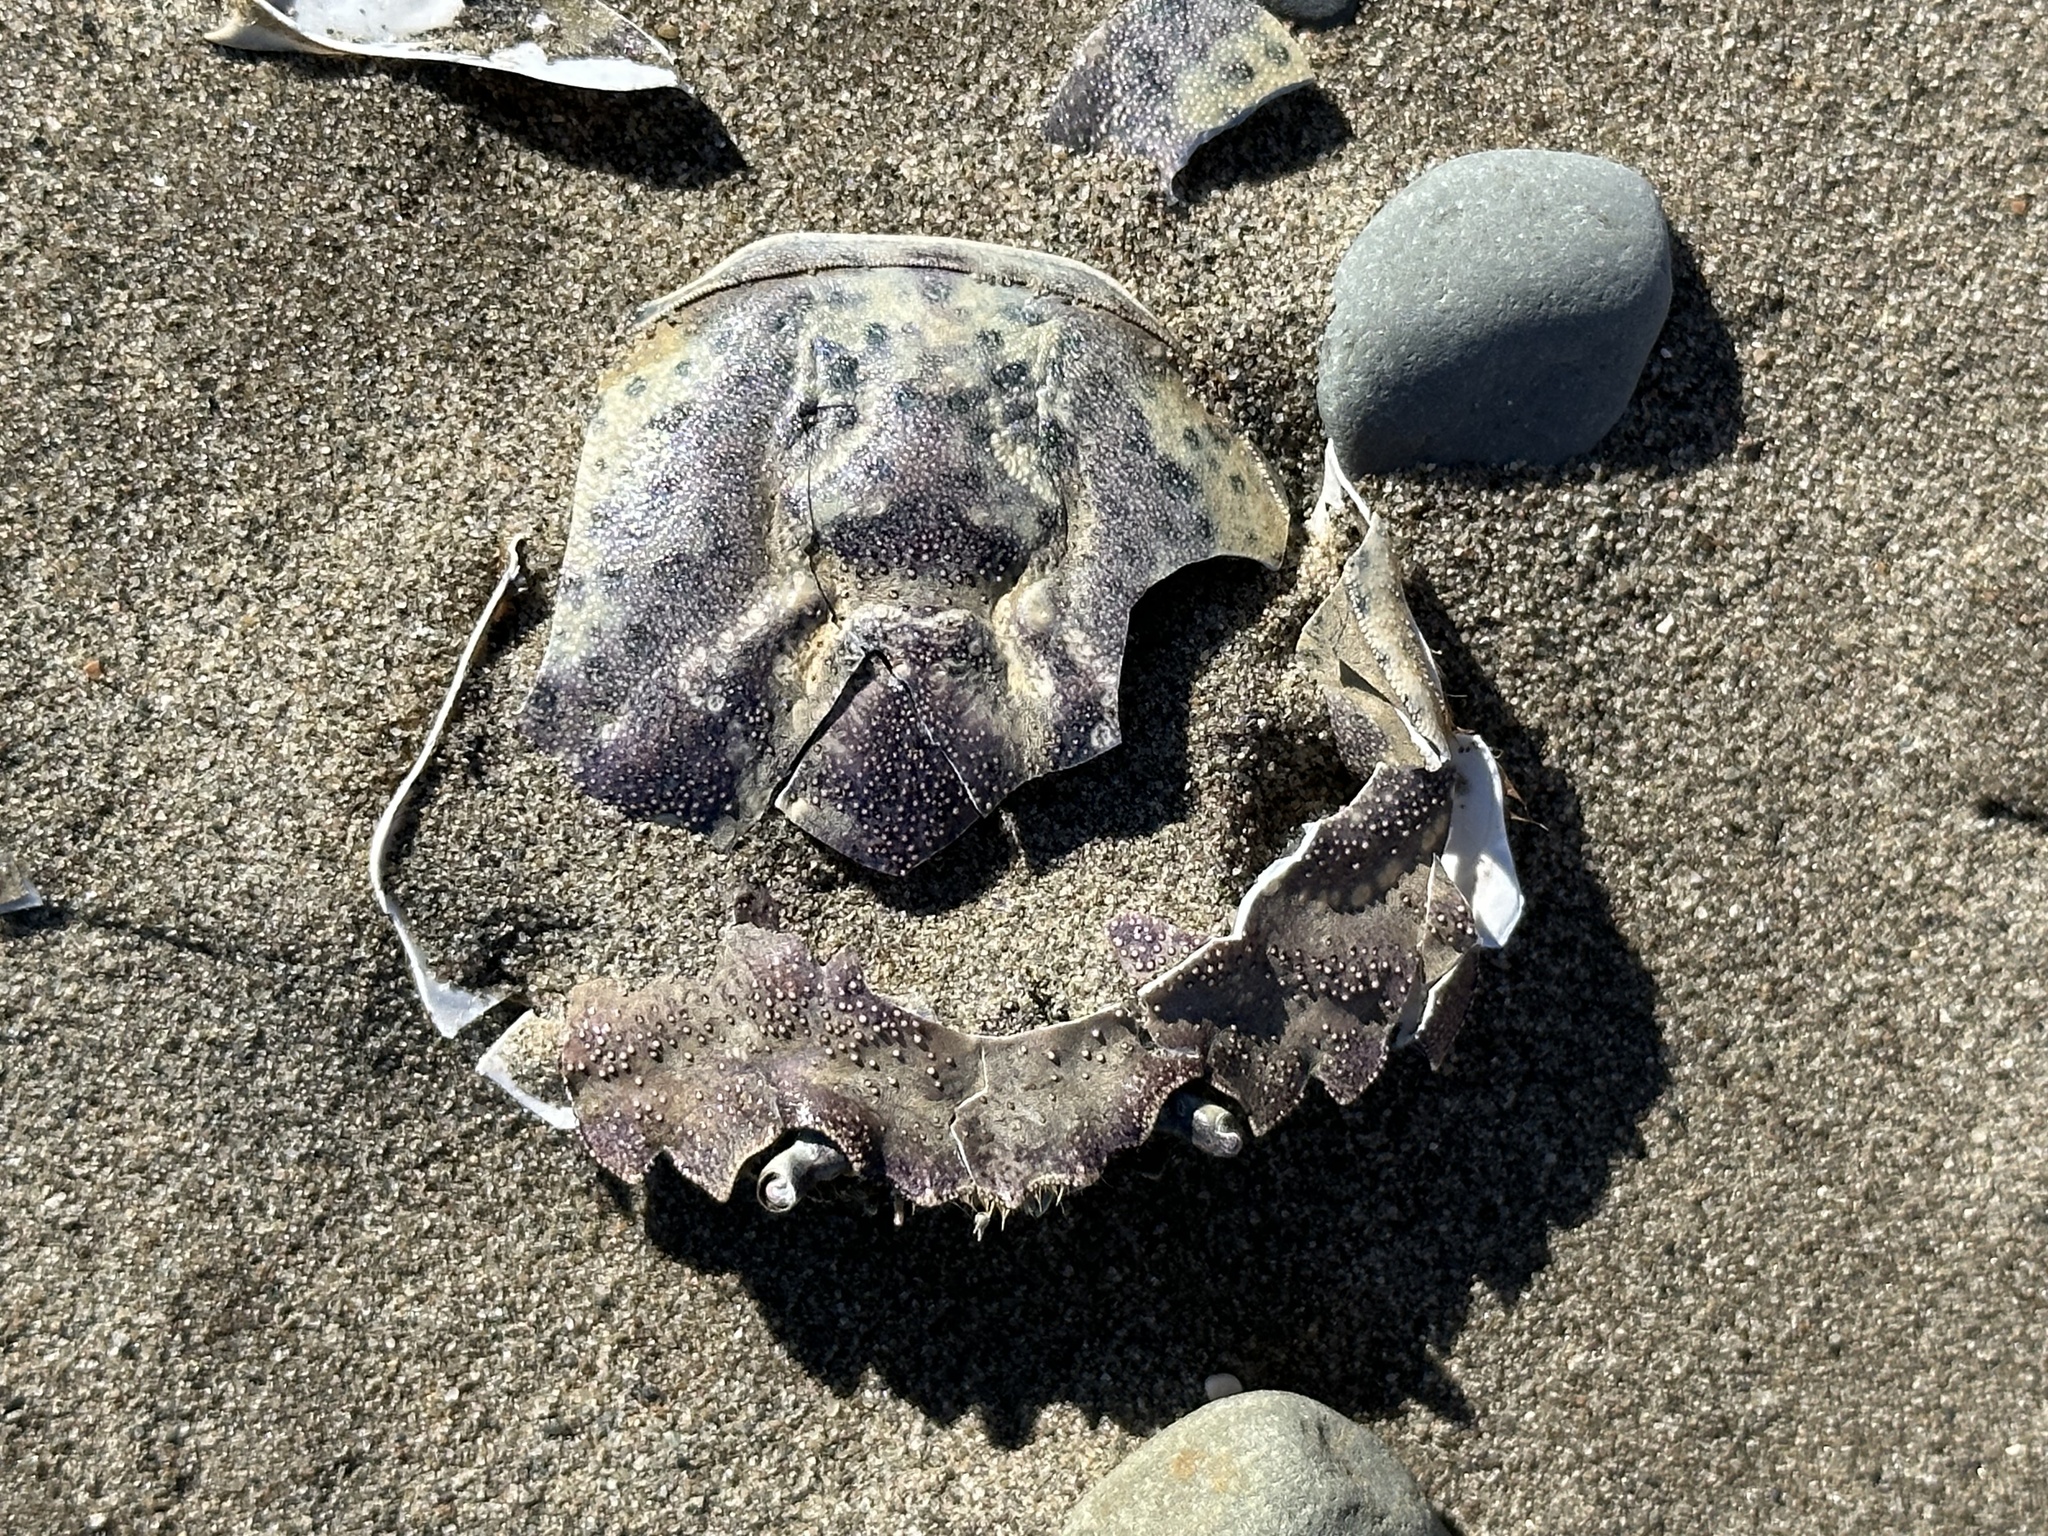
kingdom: Animalia
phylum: Arthropoda
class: Malacostraca
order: Decapoda
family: Carcinidae
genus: Carcinus
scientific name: Carcinus maenas
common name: European green crab
